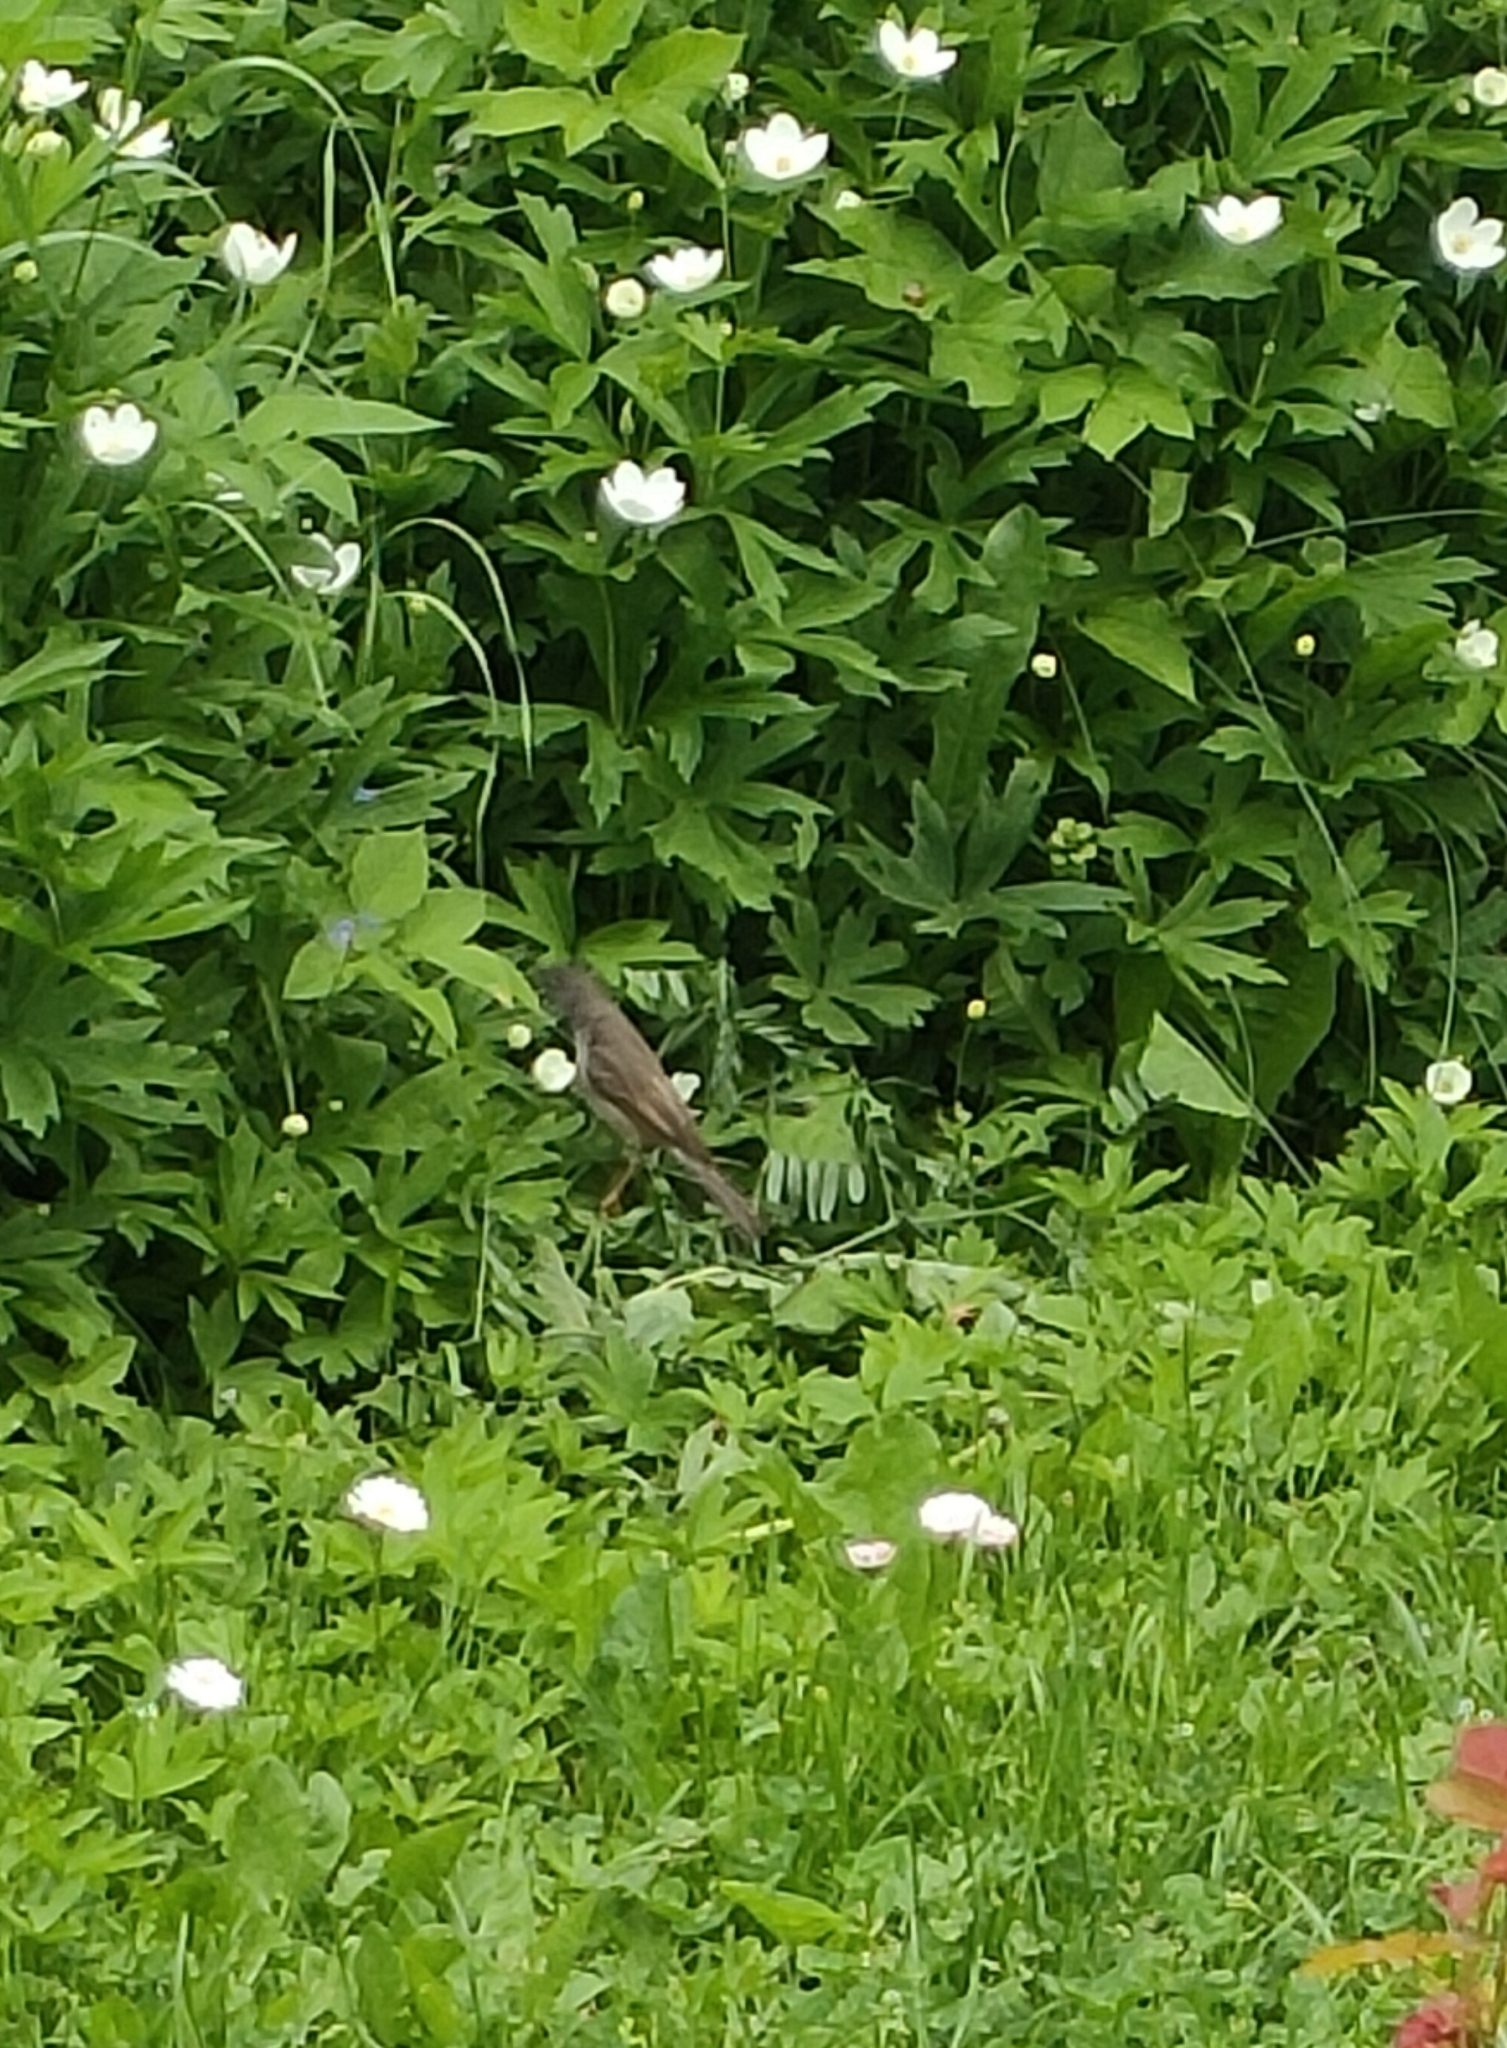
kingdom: Animalia
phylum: Chordata
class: Aves
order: Passeriformes
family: Sylviidae
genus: Sylvia
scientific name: Sylvia communis
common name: Common whitethroat
